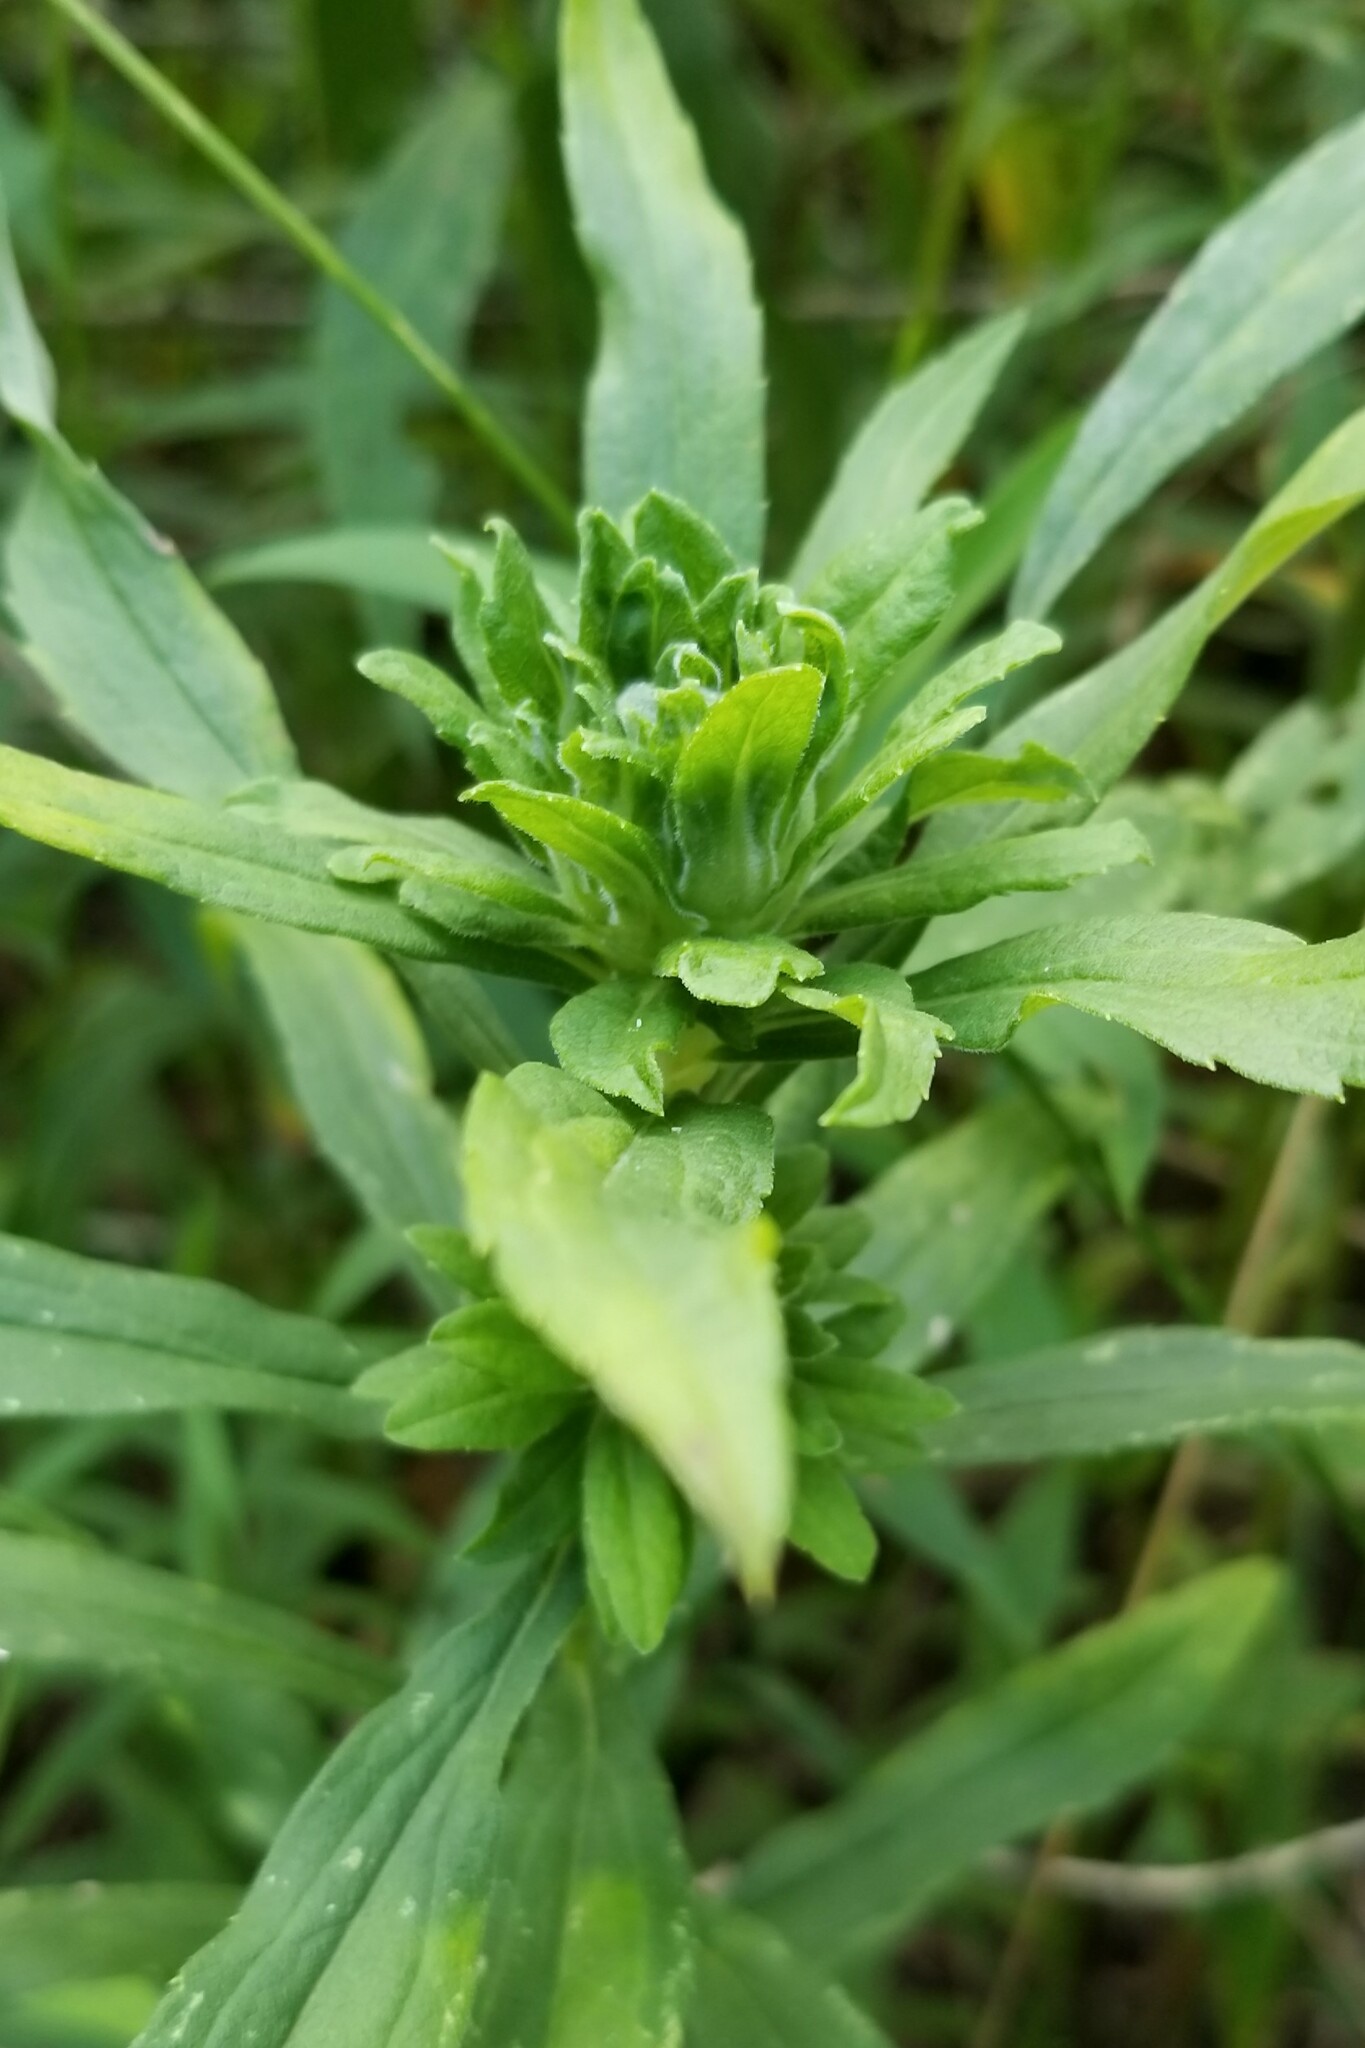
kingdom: Animalia
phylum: Arthropoda
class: Insecta
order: Diptera
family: Tephritidae
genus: Procecidochares
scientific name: Procecidochares atra
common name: Goldenrod brussels sprout gall fly
